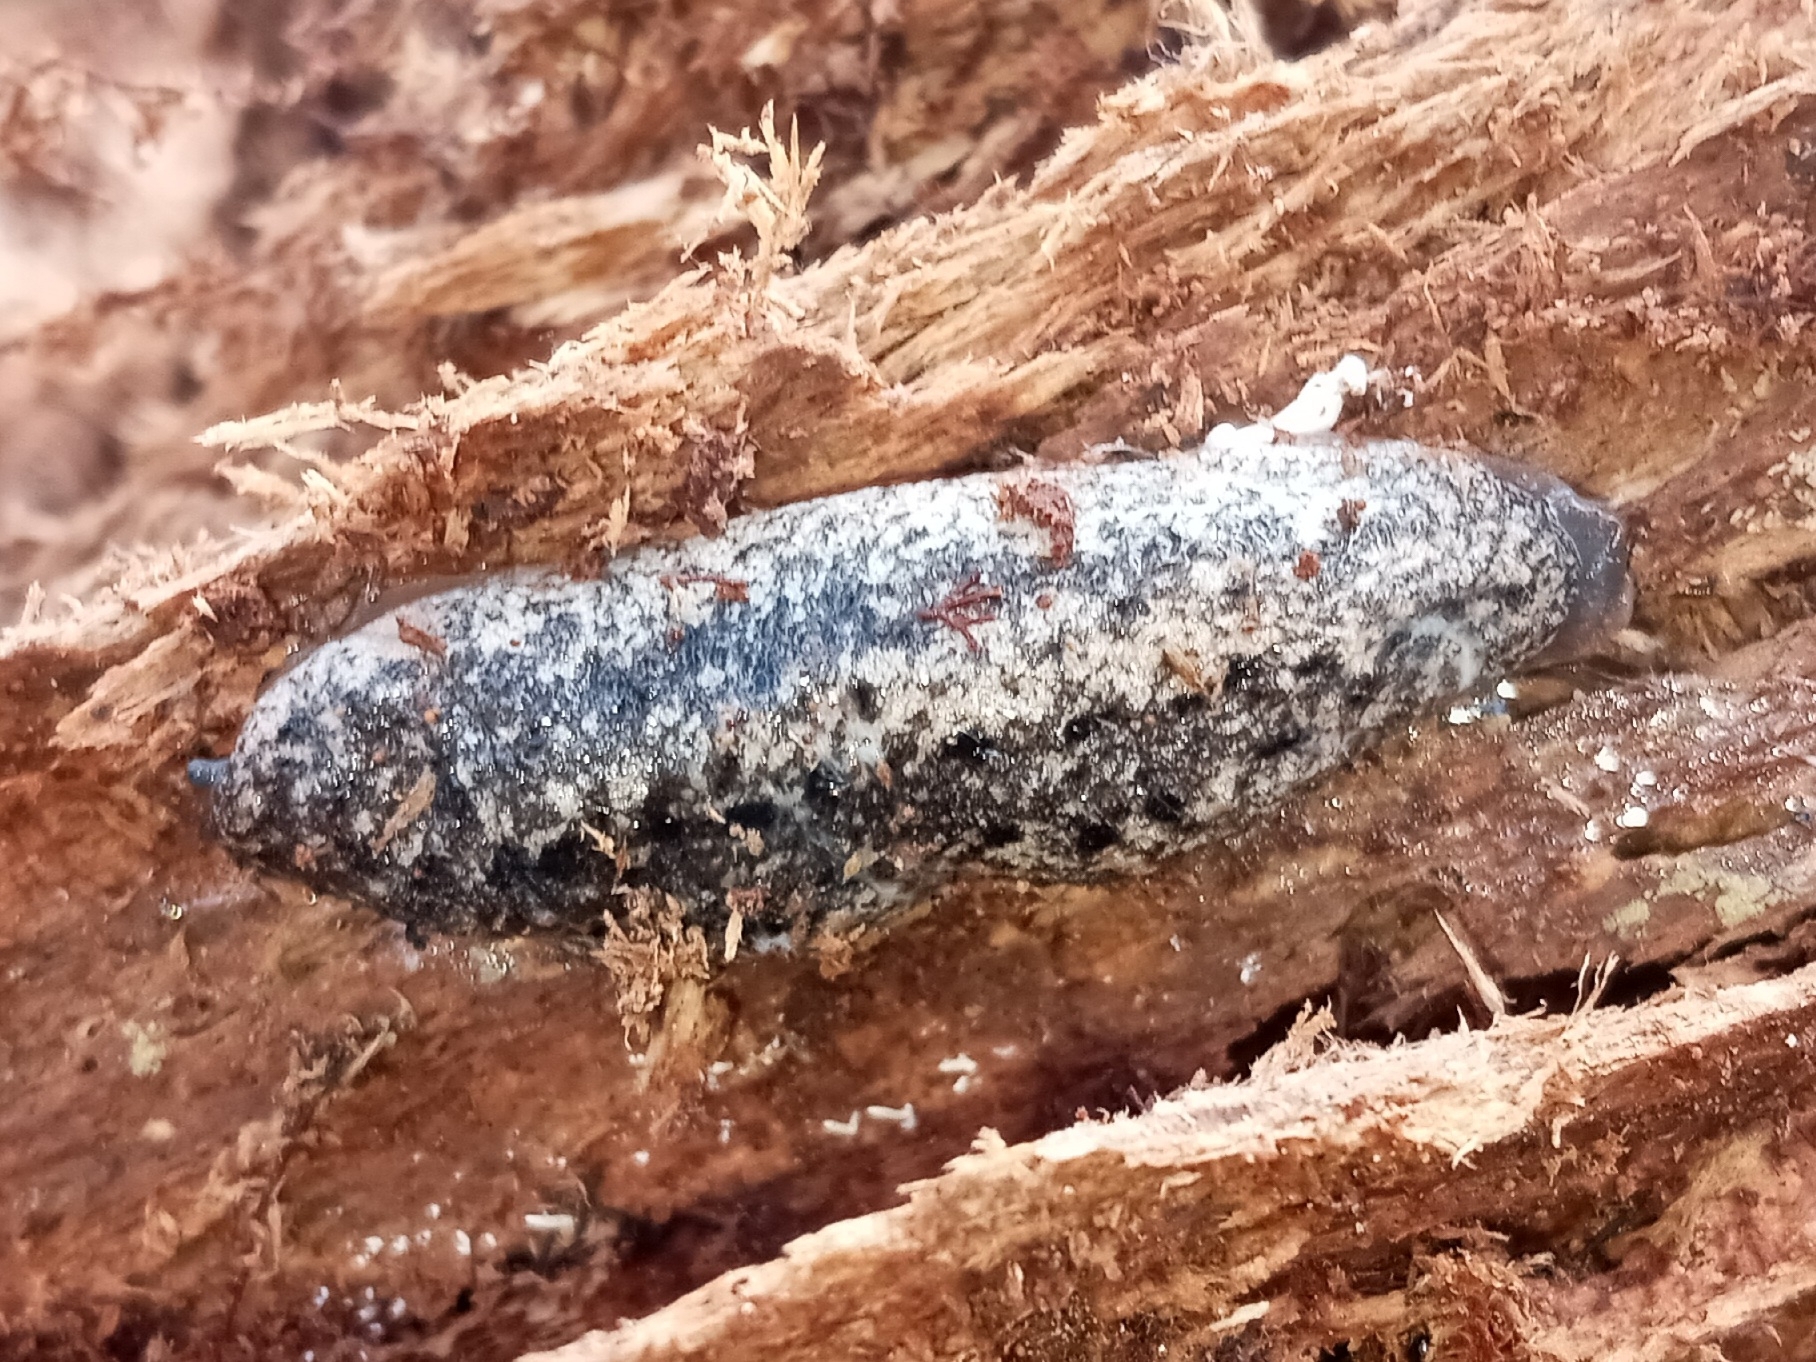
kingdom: Animalia
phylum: Mollusca
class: Gastropoda
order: Stylommatophora
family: Philomycidae
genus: Philomycus
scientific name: Philomycus carolinianus
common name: Carolina mantleslug
